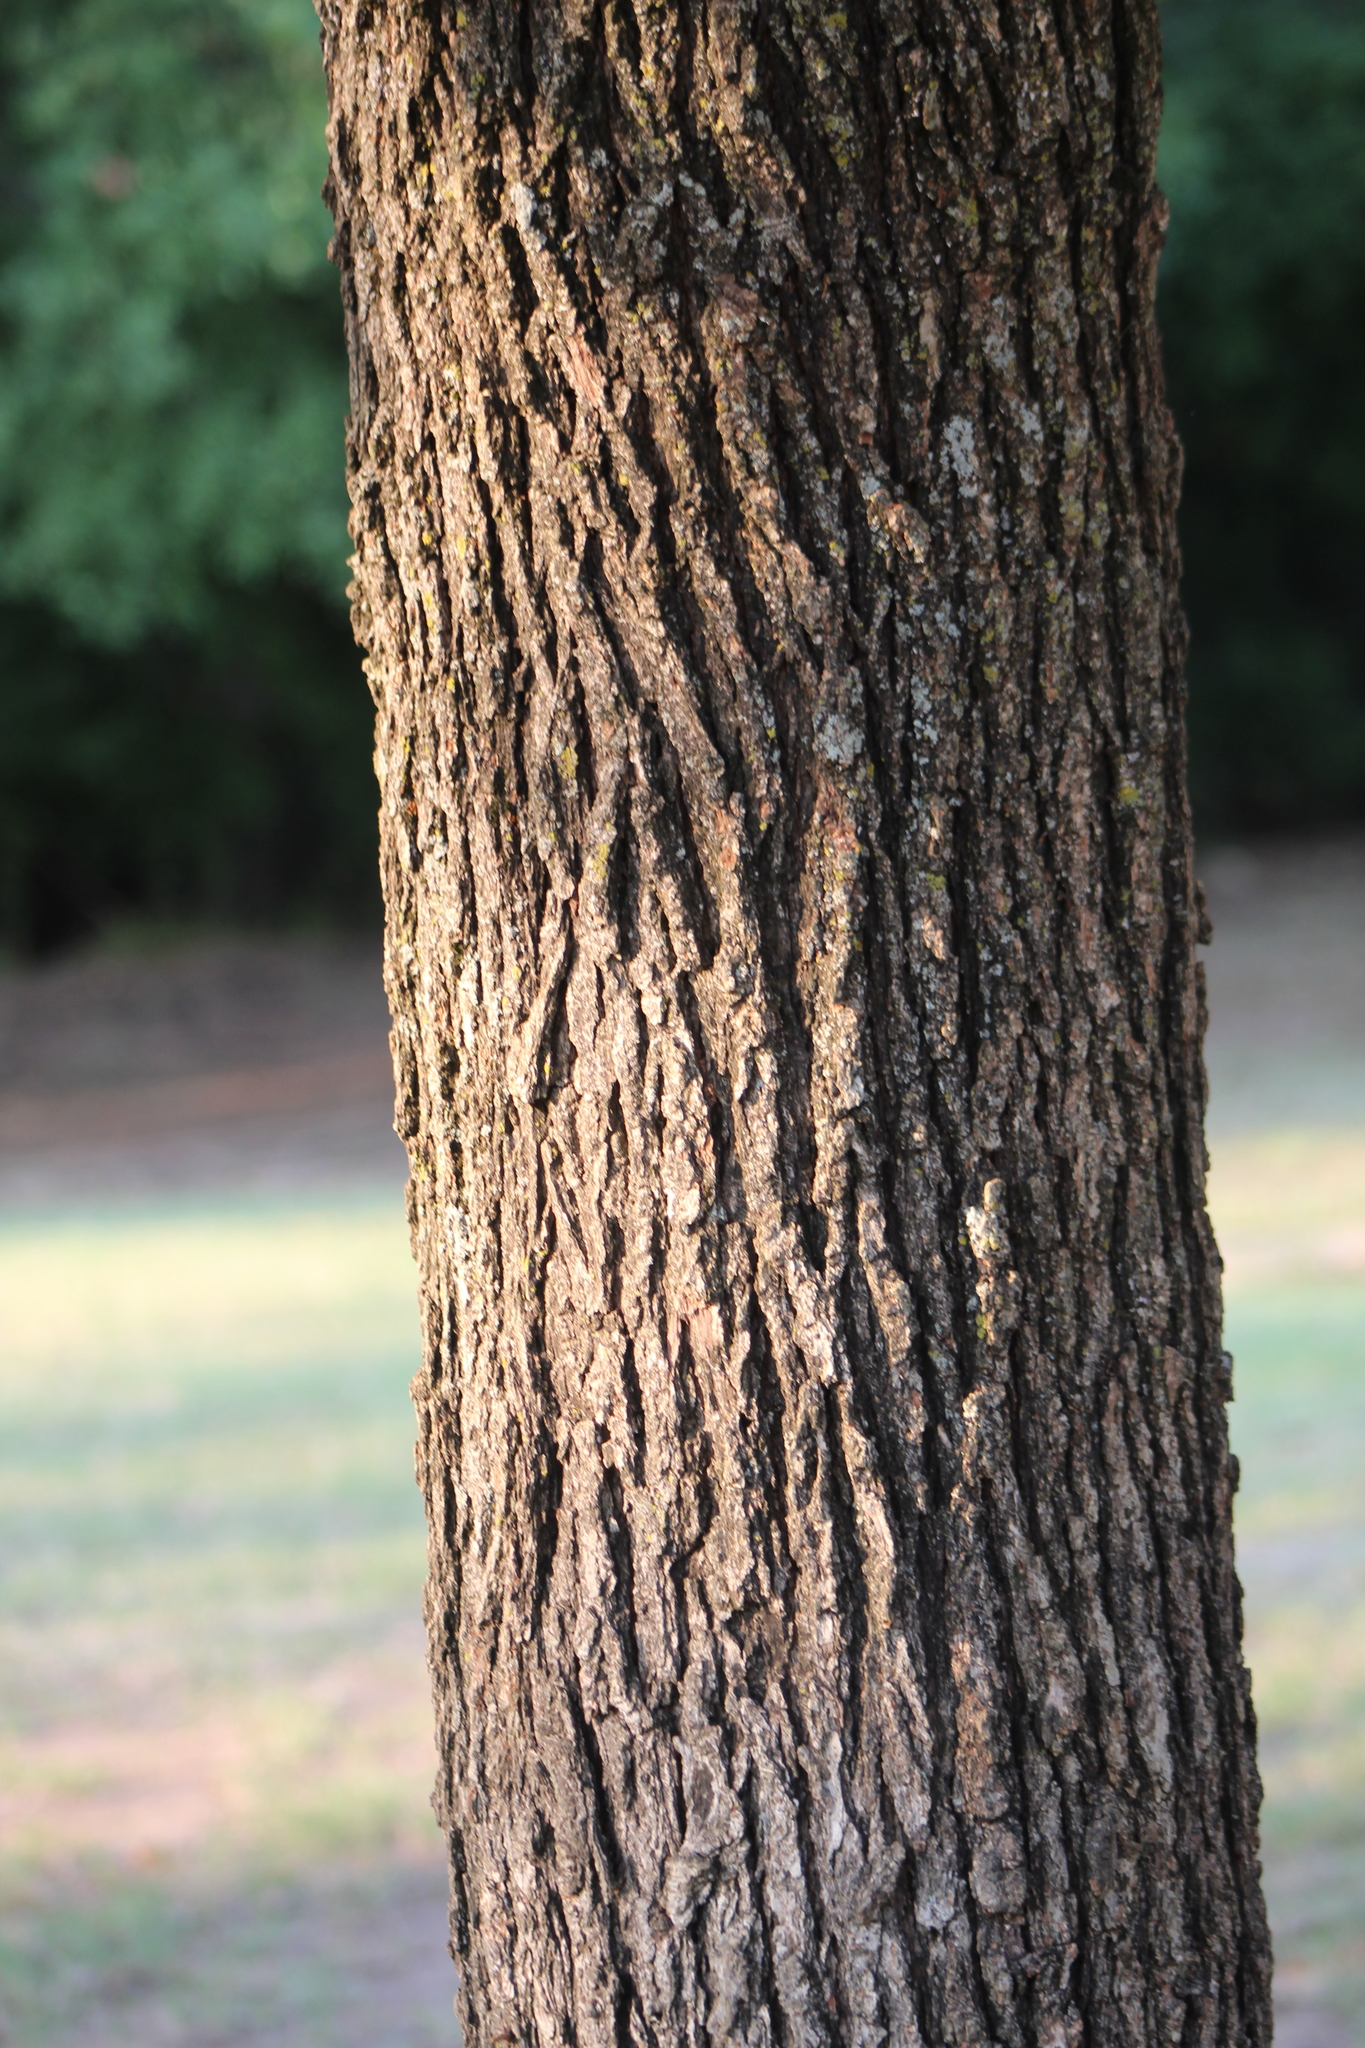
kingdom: Plantae
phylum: Tracheophyta
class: Magnoliopsida
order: Fagales
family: Fagaceae
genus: Quercus
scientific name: Quercus macrocarpa
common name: Bur oak
